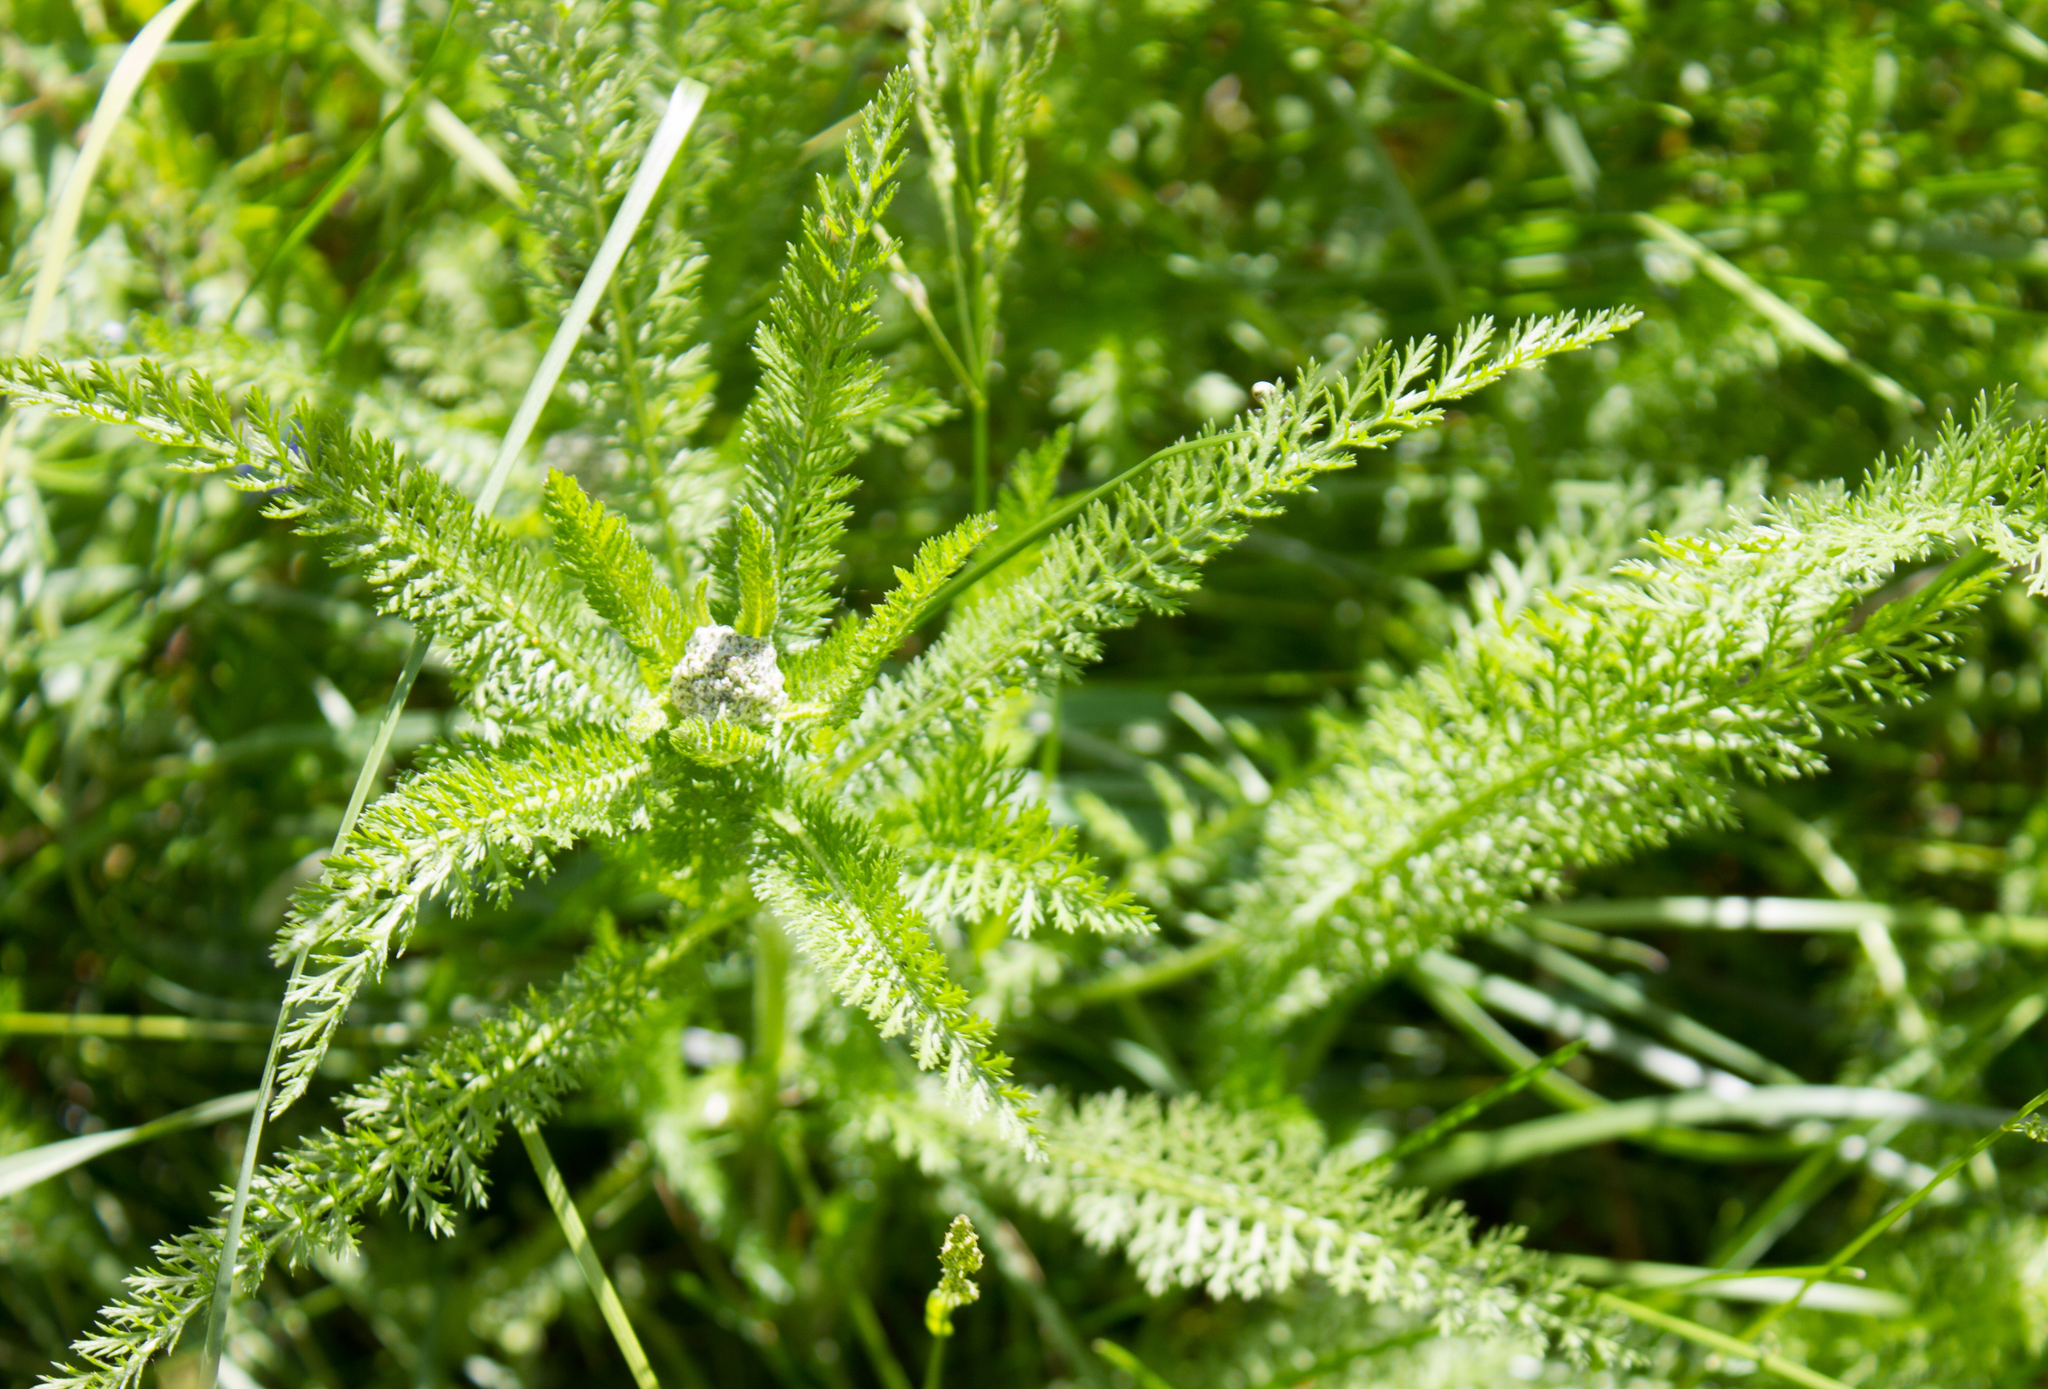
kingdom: Plantae
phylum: Tracheophyta
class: Magnoliopsida
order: Asterales
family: Asteraceae
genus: Achillea
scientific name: Achillea millefolium
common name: Yarrow
